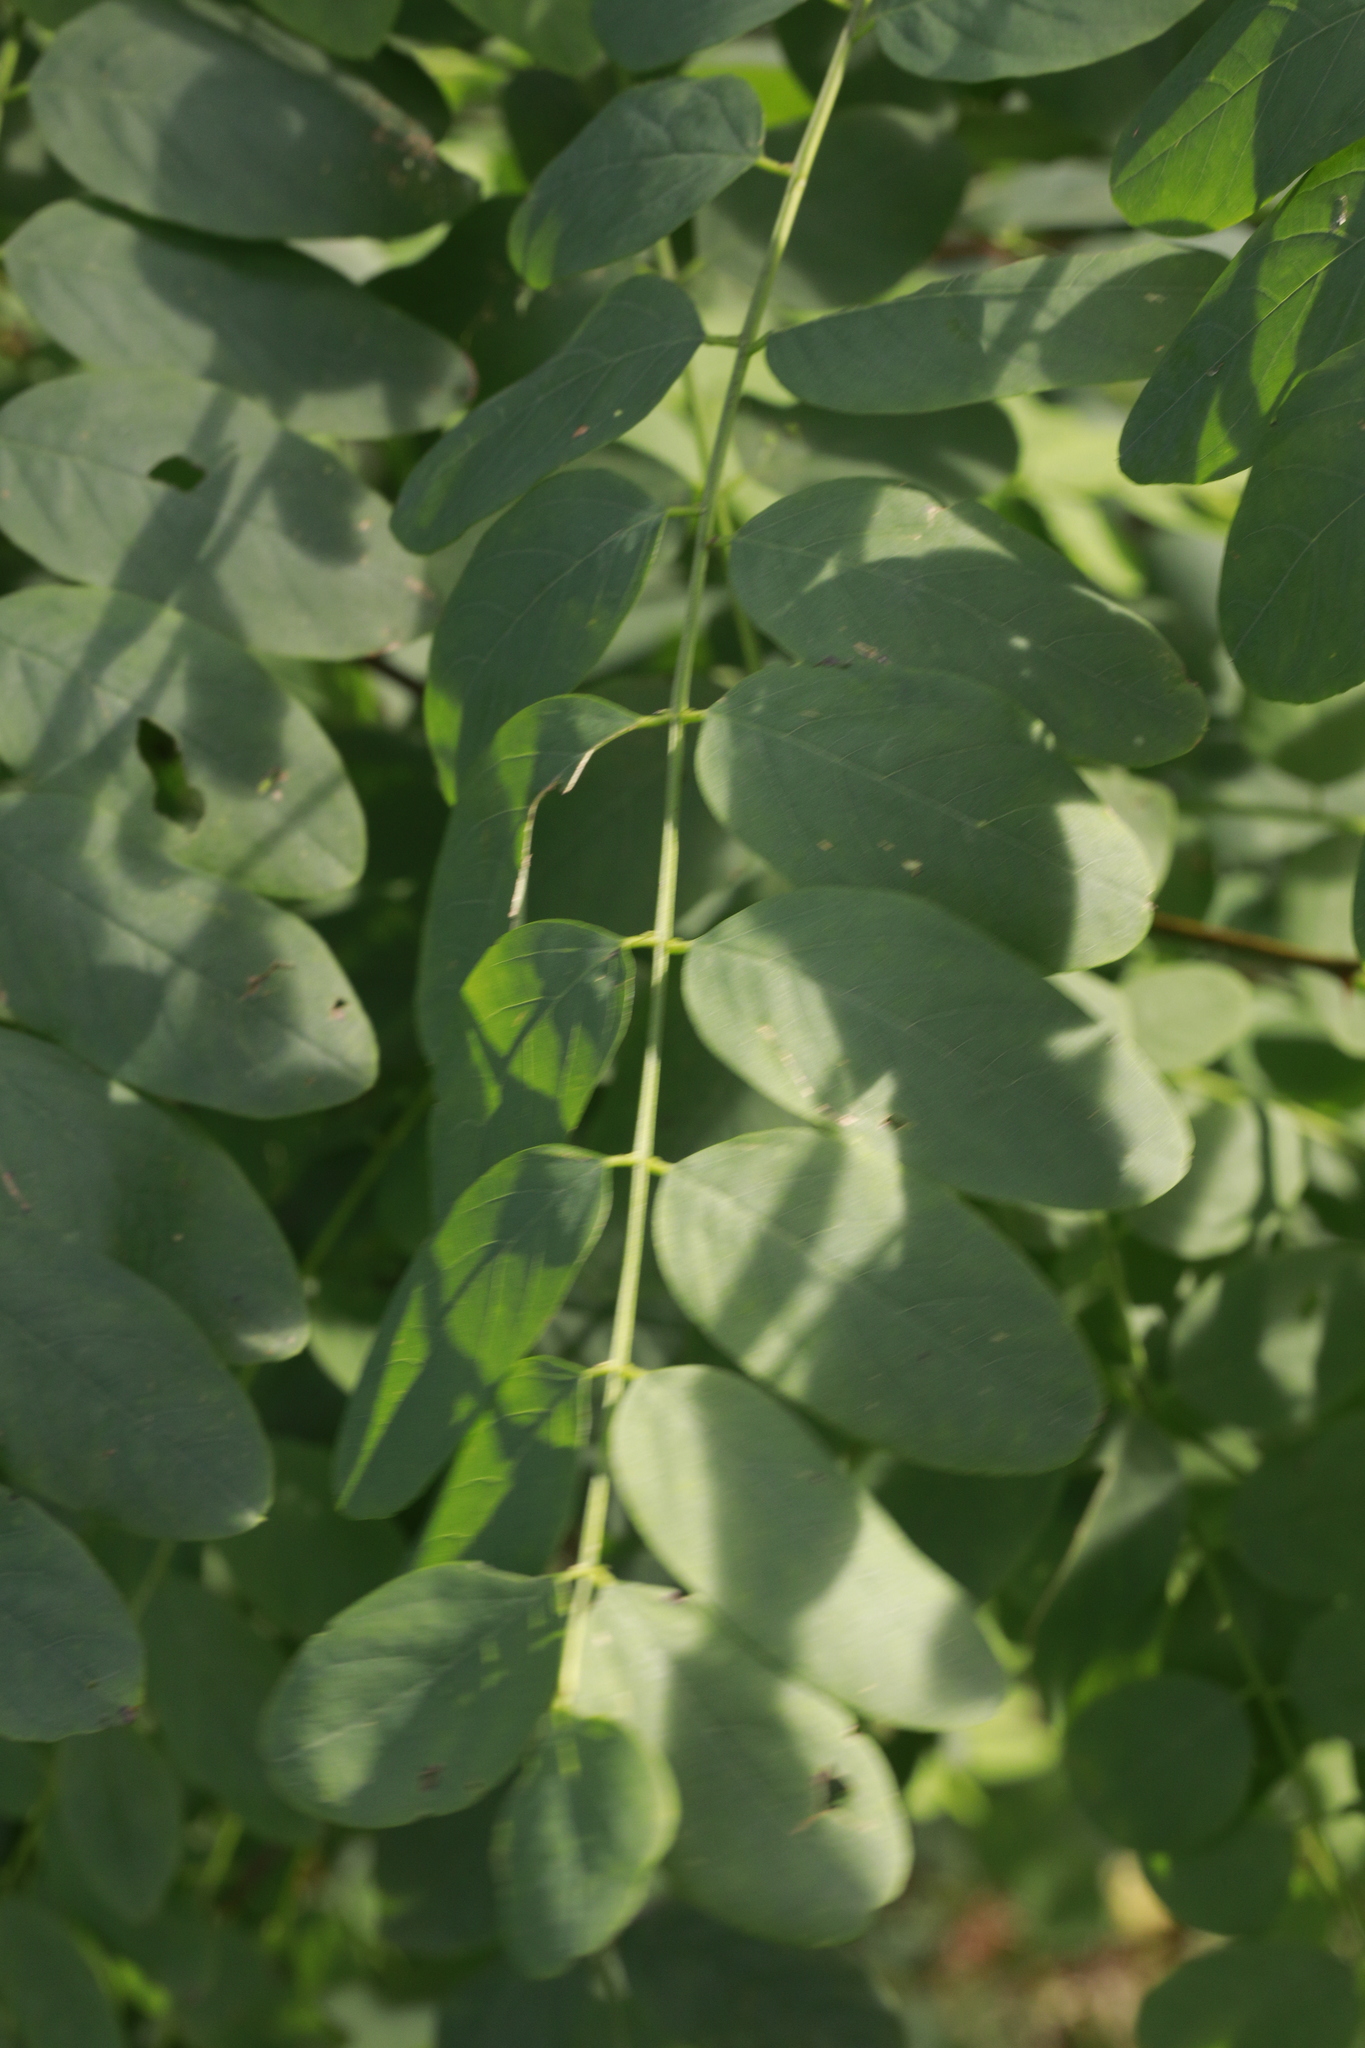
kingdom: Plantae
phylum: Tracheophyta
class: Magnoliopsida
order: Fabales
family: Fabaceae
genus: Robinia
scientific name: Robinia pseudoacacia
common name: Black locust
